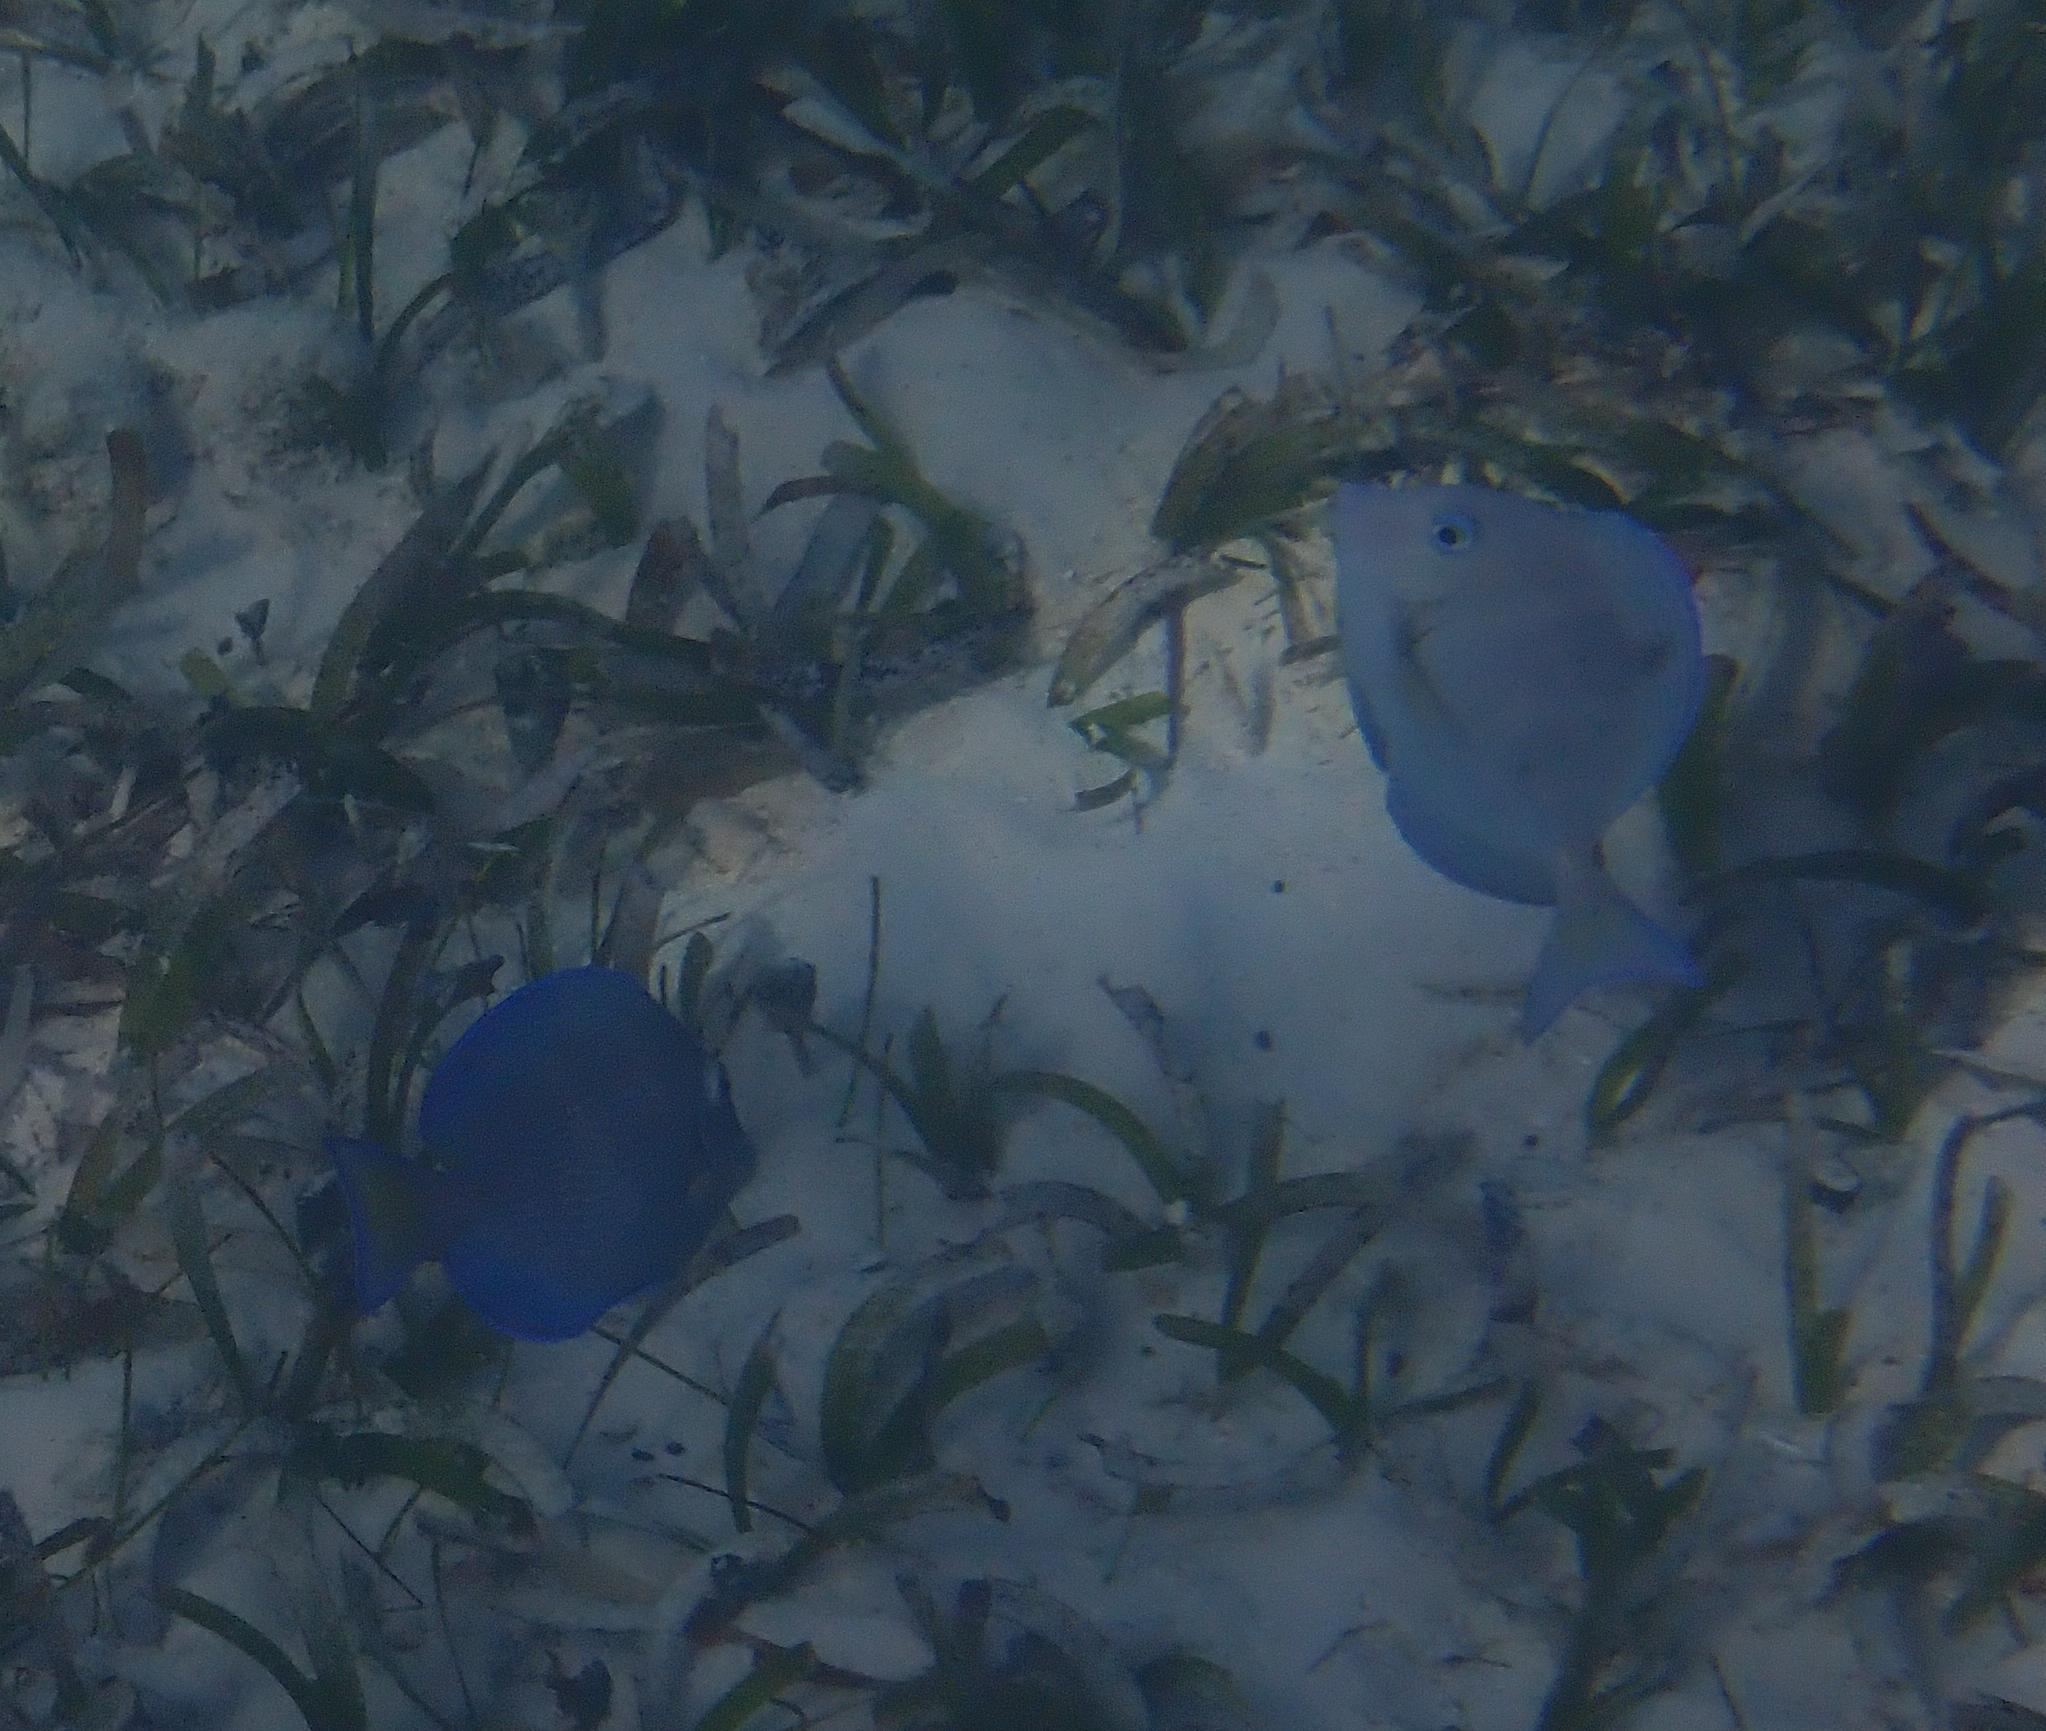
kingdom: Animalia
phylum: Chordata
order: Perciformes
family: Acanthuridae
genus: Acanthurus
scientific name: Acanthurus coeruleus
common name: Blue tang
